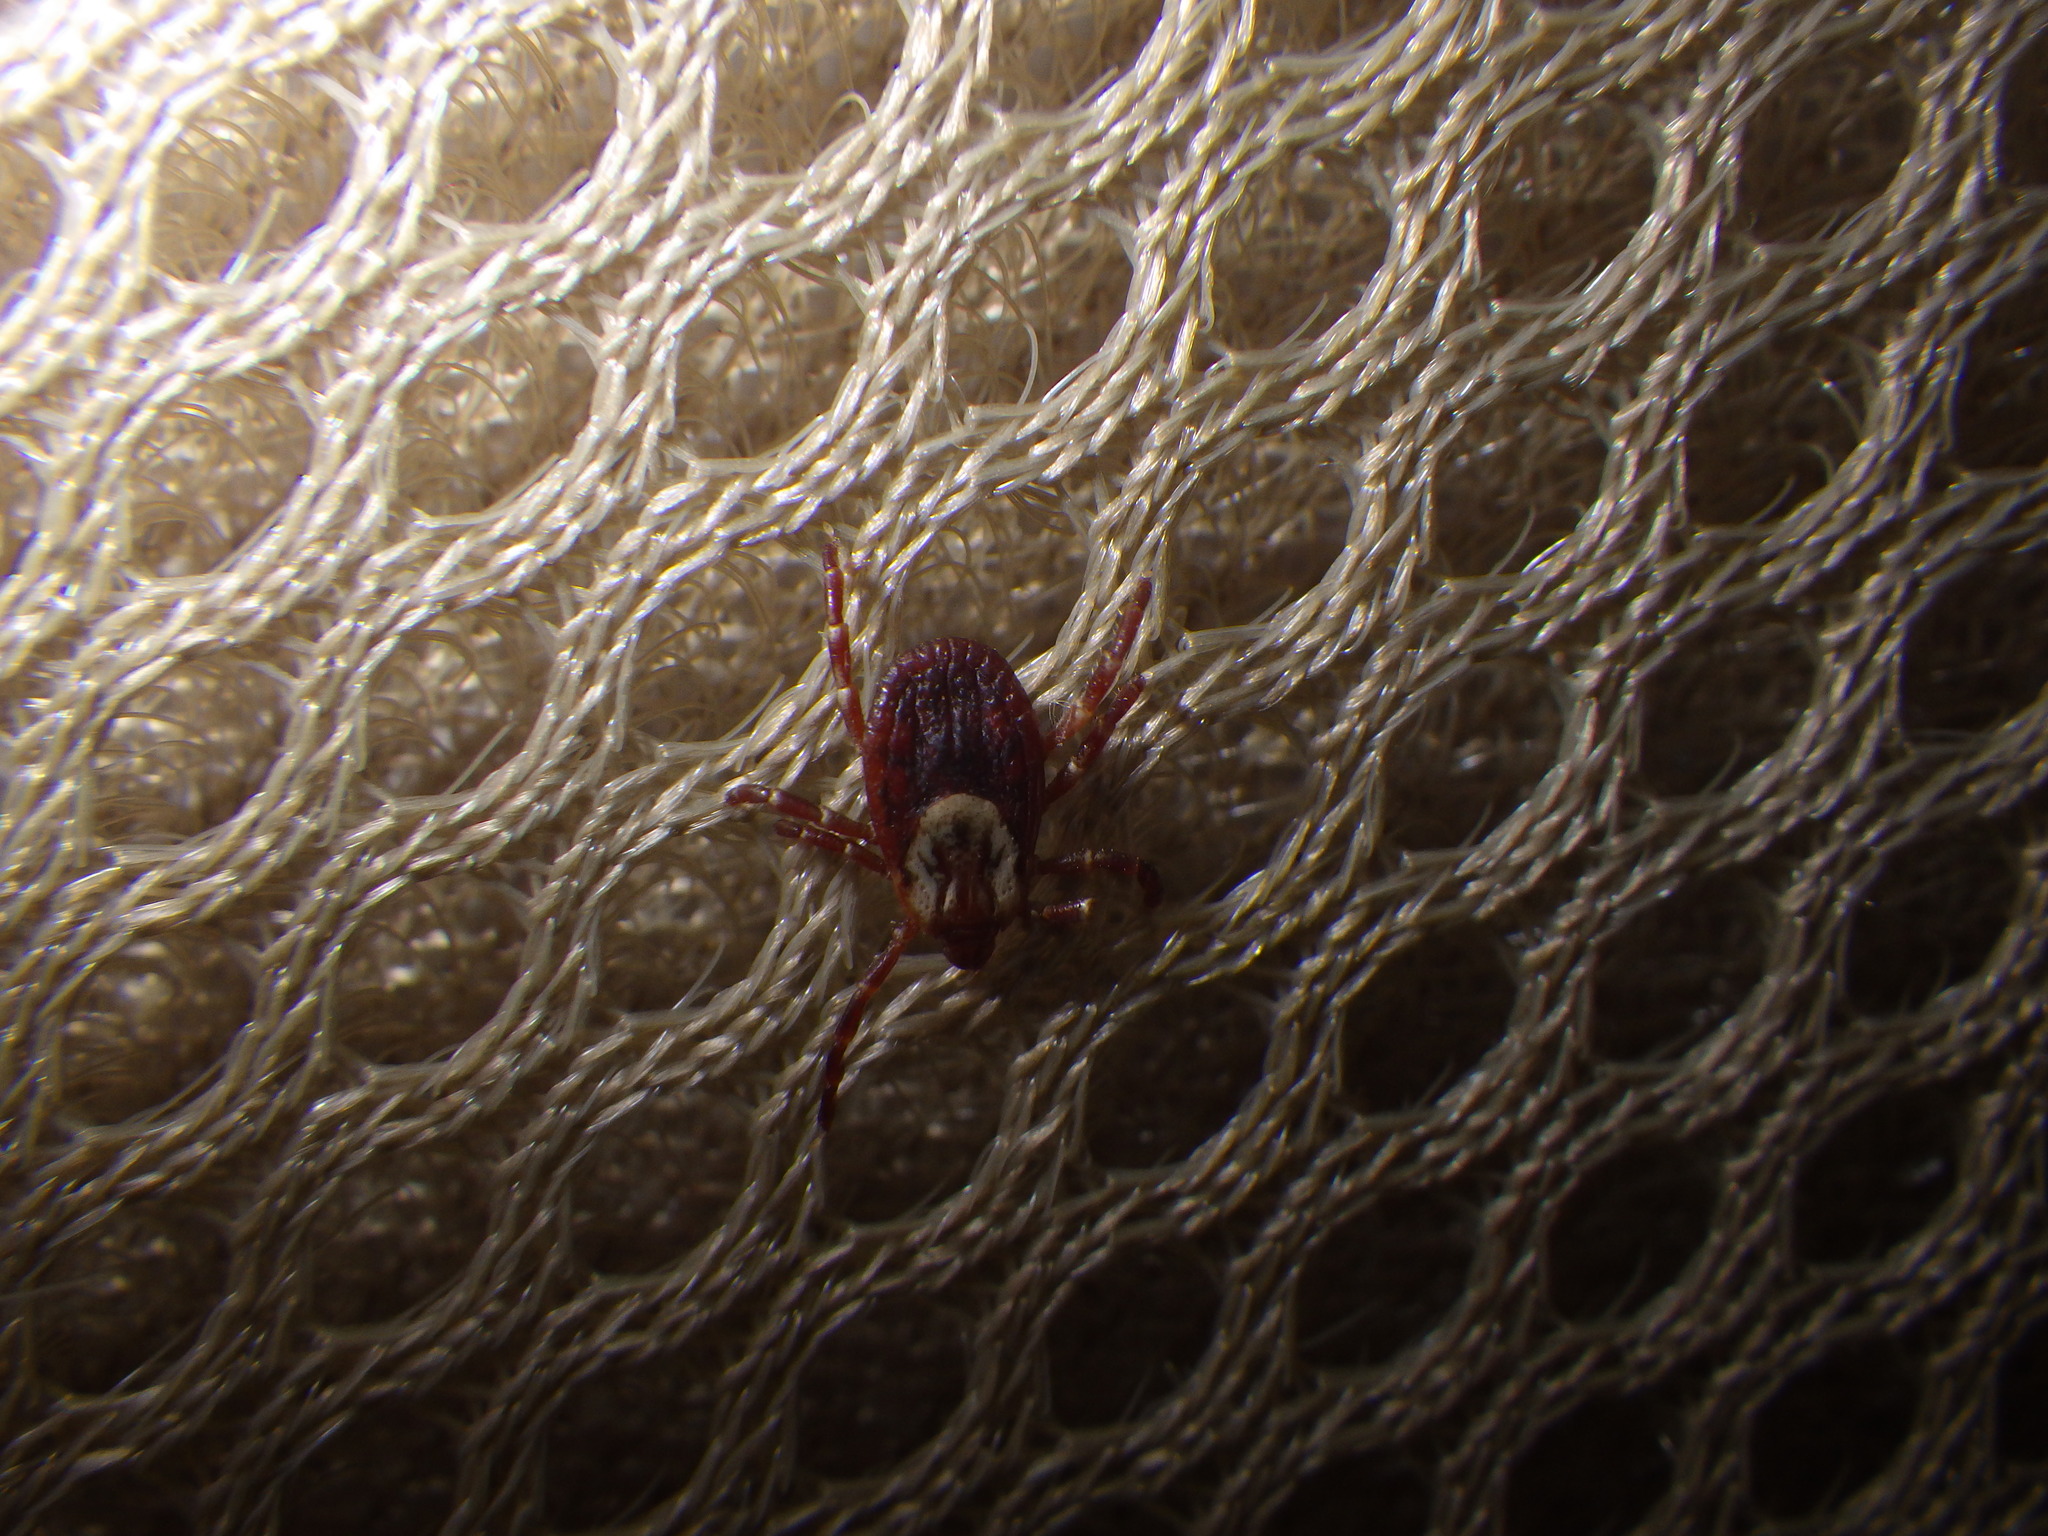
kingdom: Animalia
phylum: Arthropoda
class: Arachnida
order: Ixodida
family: Ixodidae
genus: Dermacentor
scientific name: Dermacentor variabilis
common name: American dog tick
